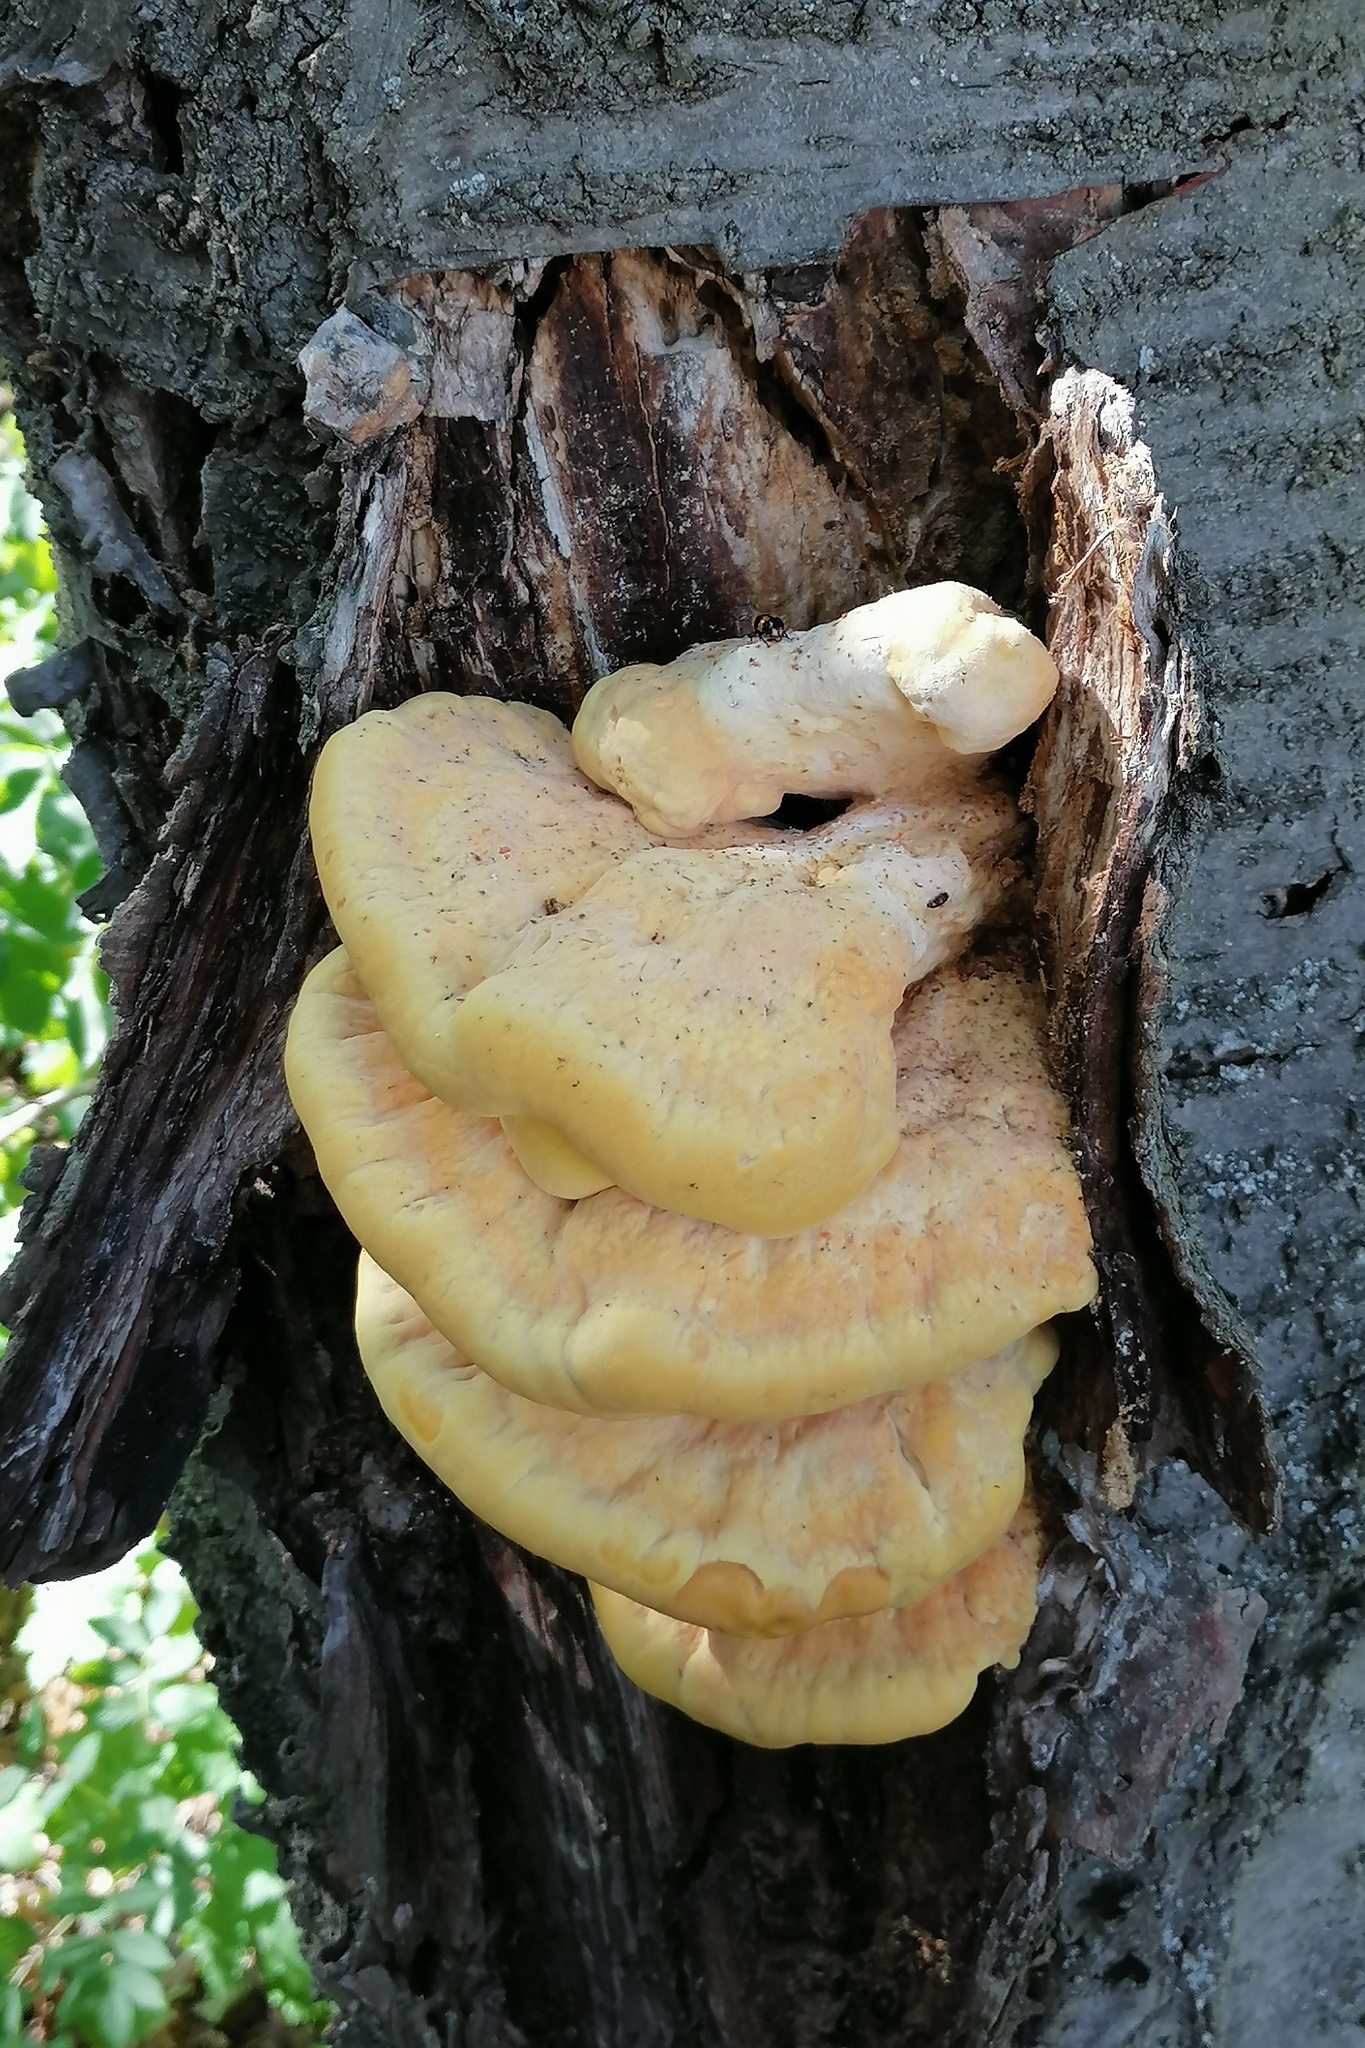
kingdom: Fungi
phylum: Basidiomycota
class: Agaricomycetes
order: Polyporales
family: Laetiporaceae
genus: Laetiporus
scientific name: Laetiporus sulphureus
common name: Chicken of the woods
